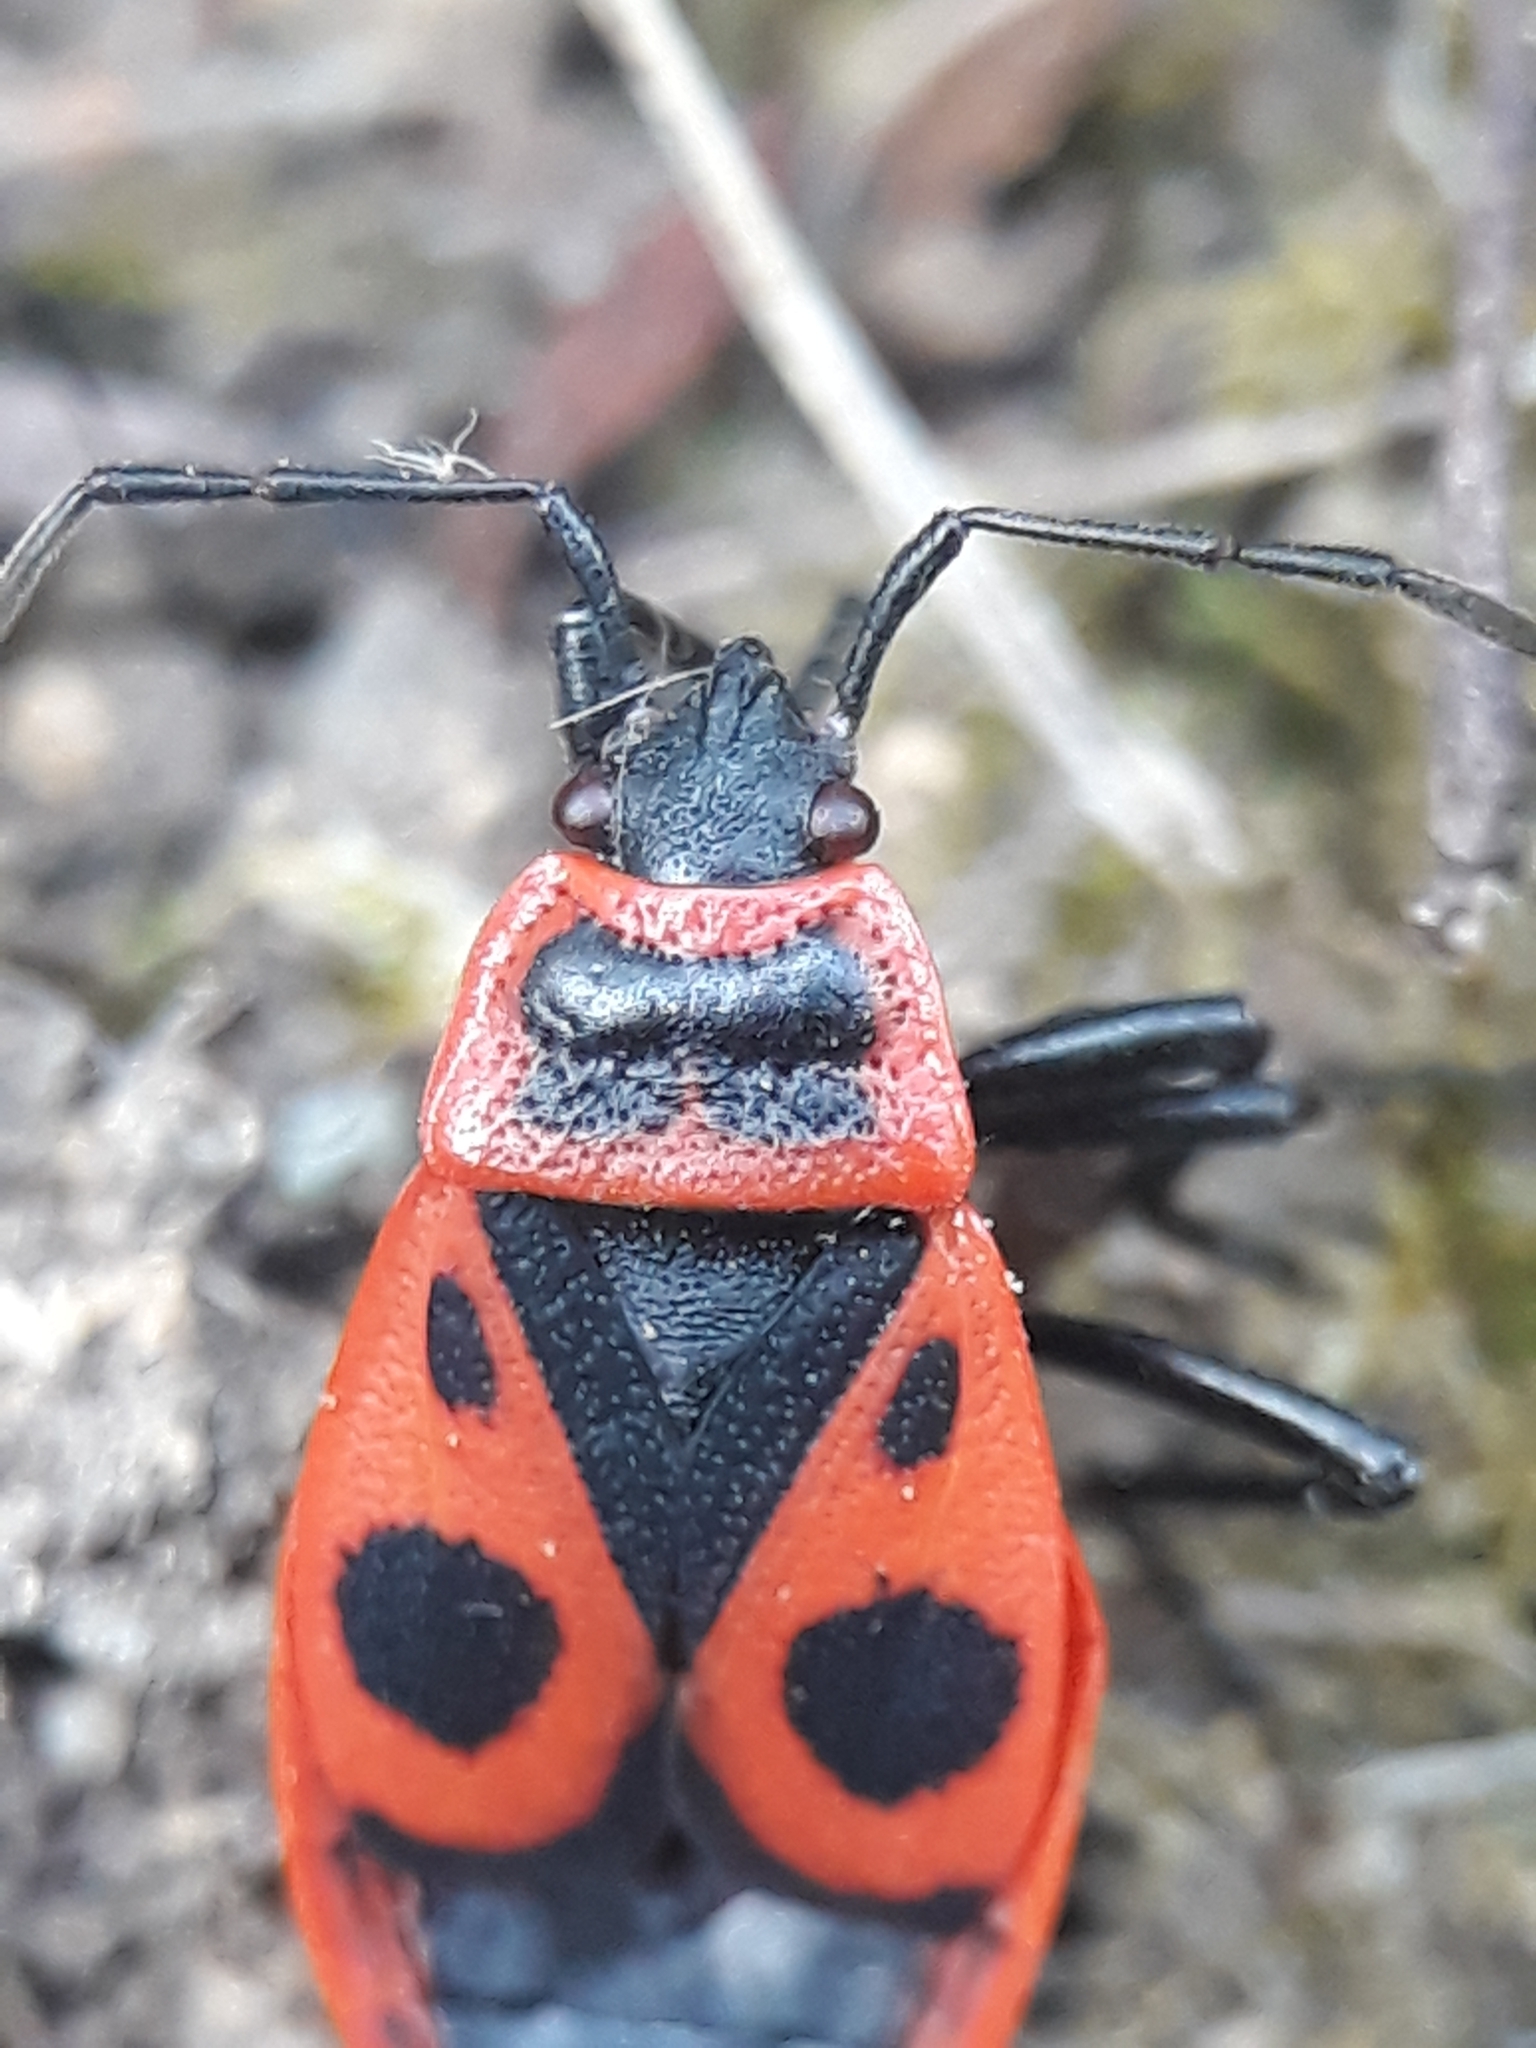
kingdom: Animalia
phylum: Arthropoda
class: Insecta
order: Hemiptera
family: Pyrrhocoridae
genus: Pyrrhocoris
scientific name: Pyrrhocoris apterus
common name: Firebug
